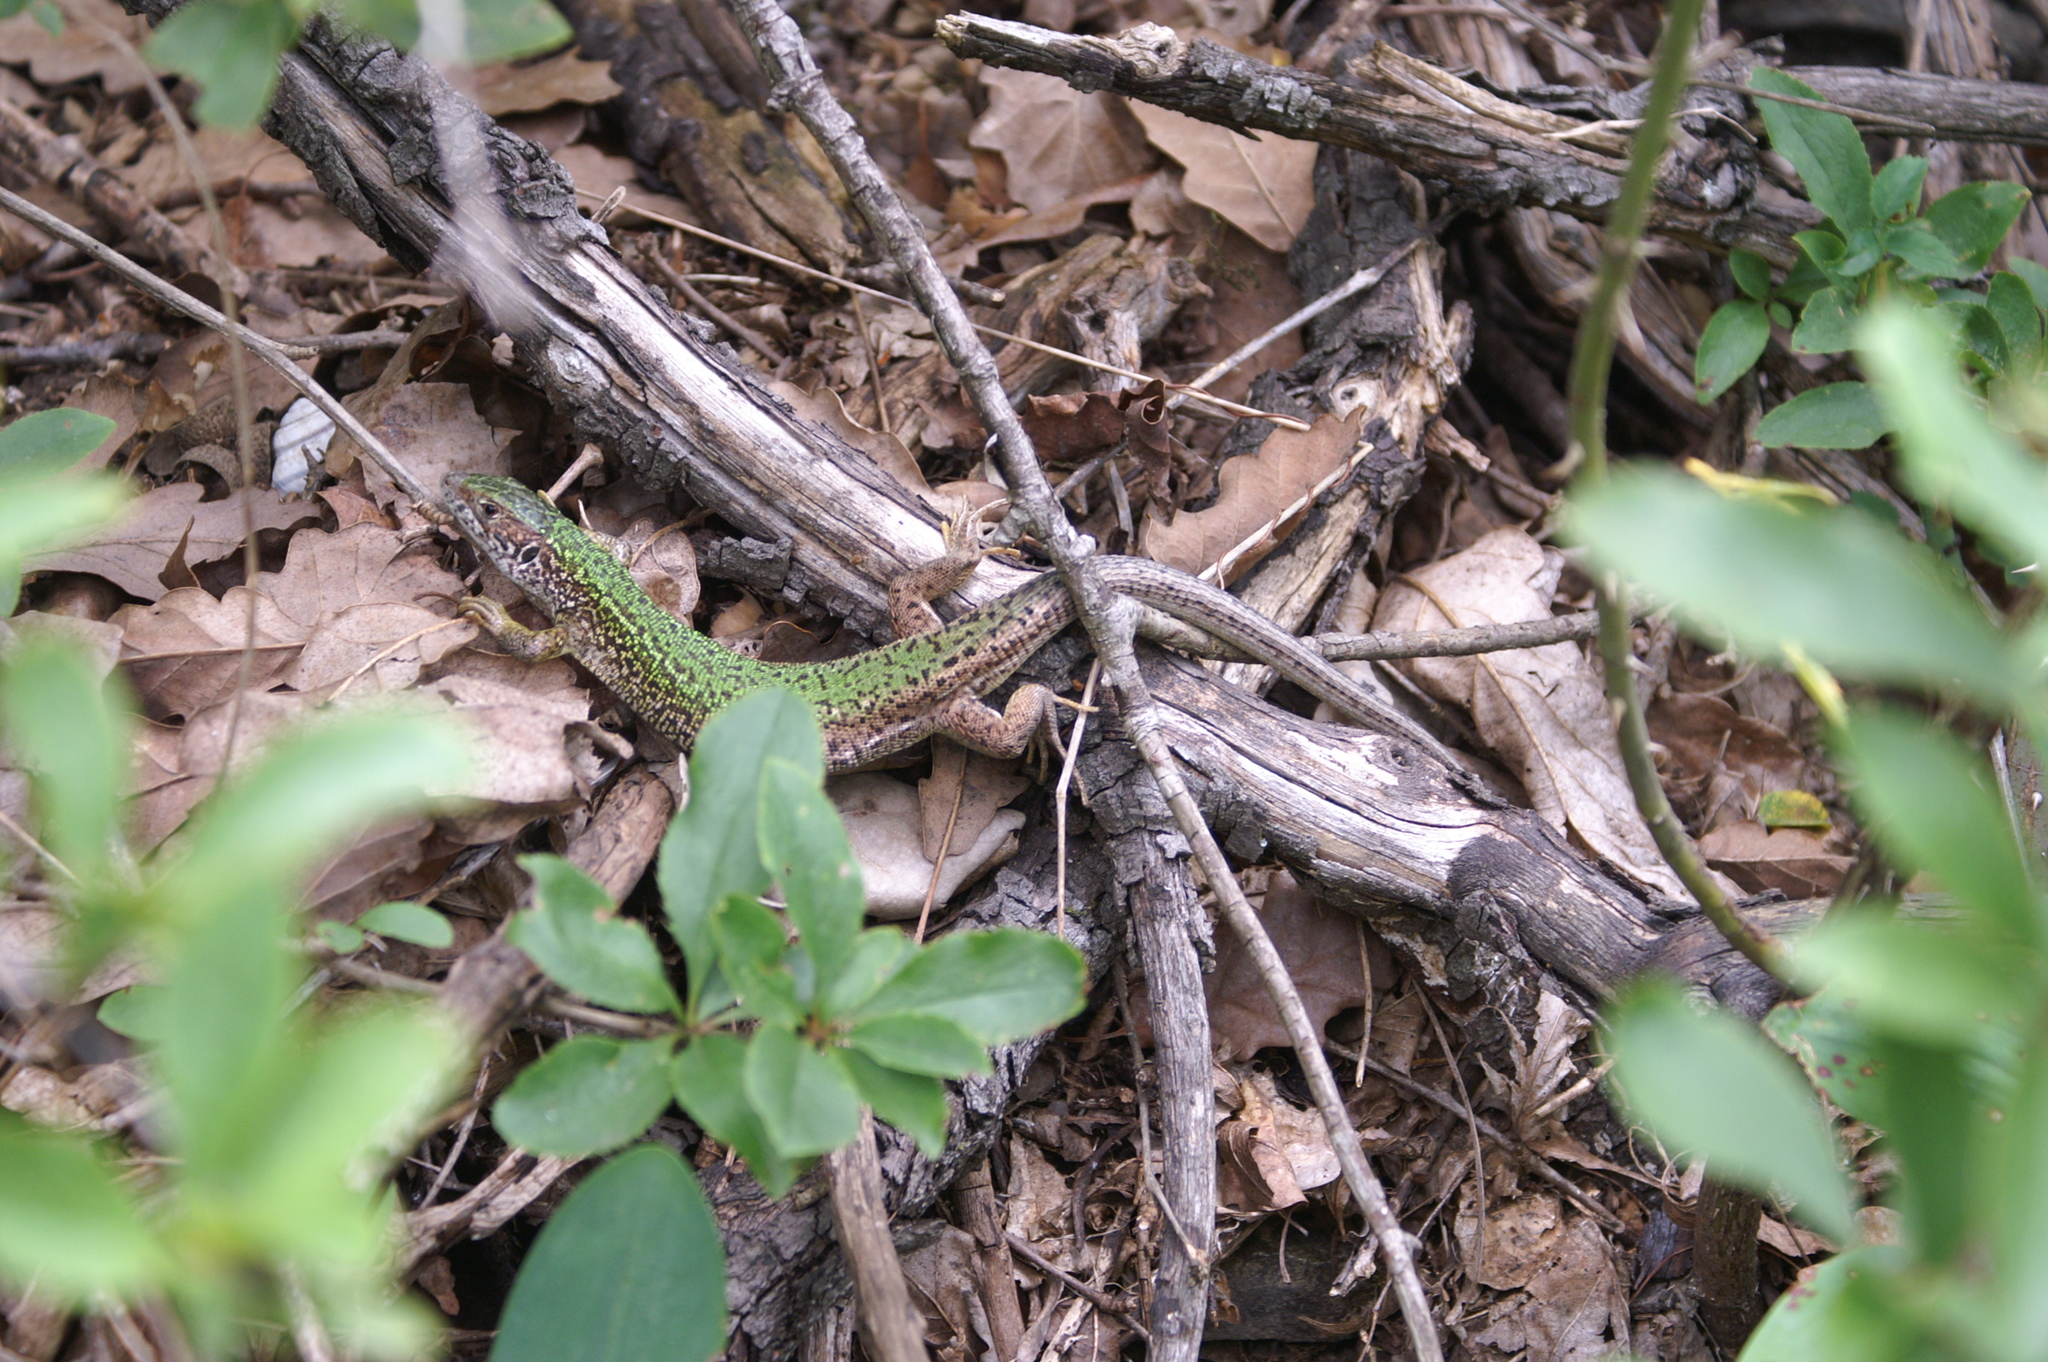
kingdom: Animalia
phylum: Chordata
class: Squamata
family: Lacertidae
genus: Lacerta
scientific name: Lacerta viridis
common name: European green lizard
